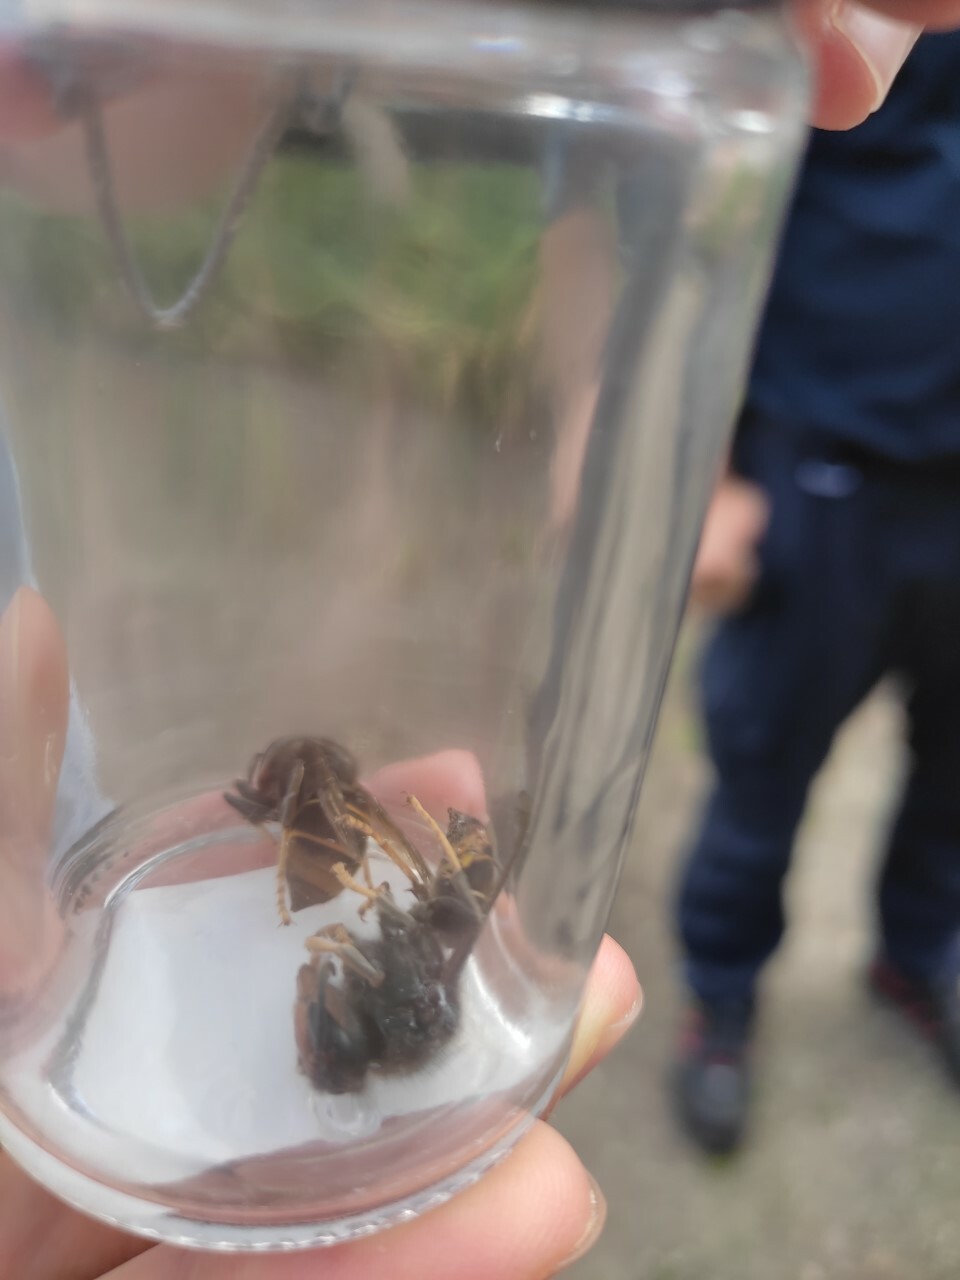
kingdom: Animalia
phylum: Arthropoda
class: Insecta
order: Hymenoptera
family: Vespidae
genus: Vespa
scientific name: Vespa velutina
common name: Asian hornet
